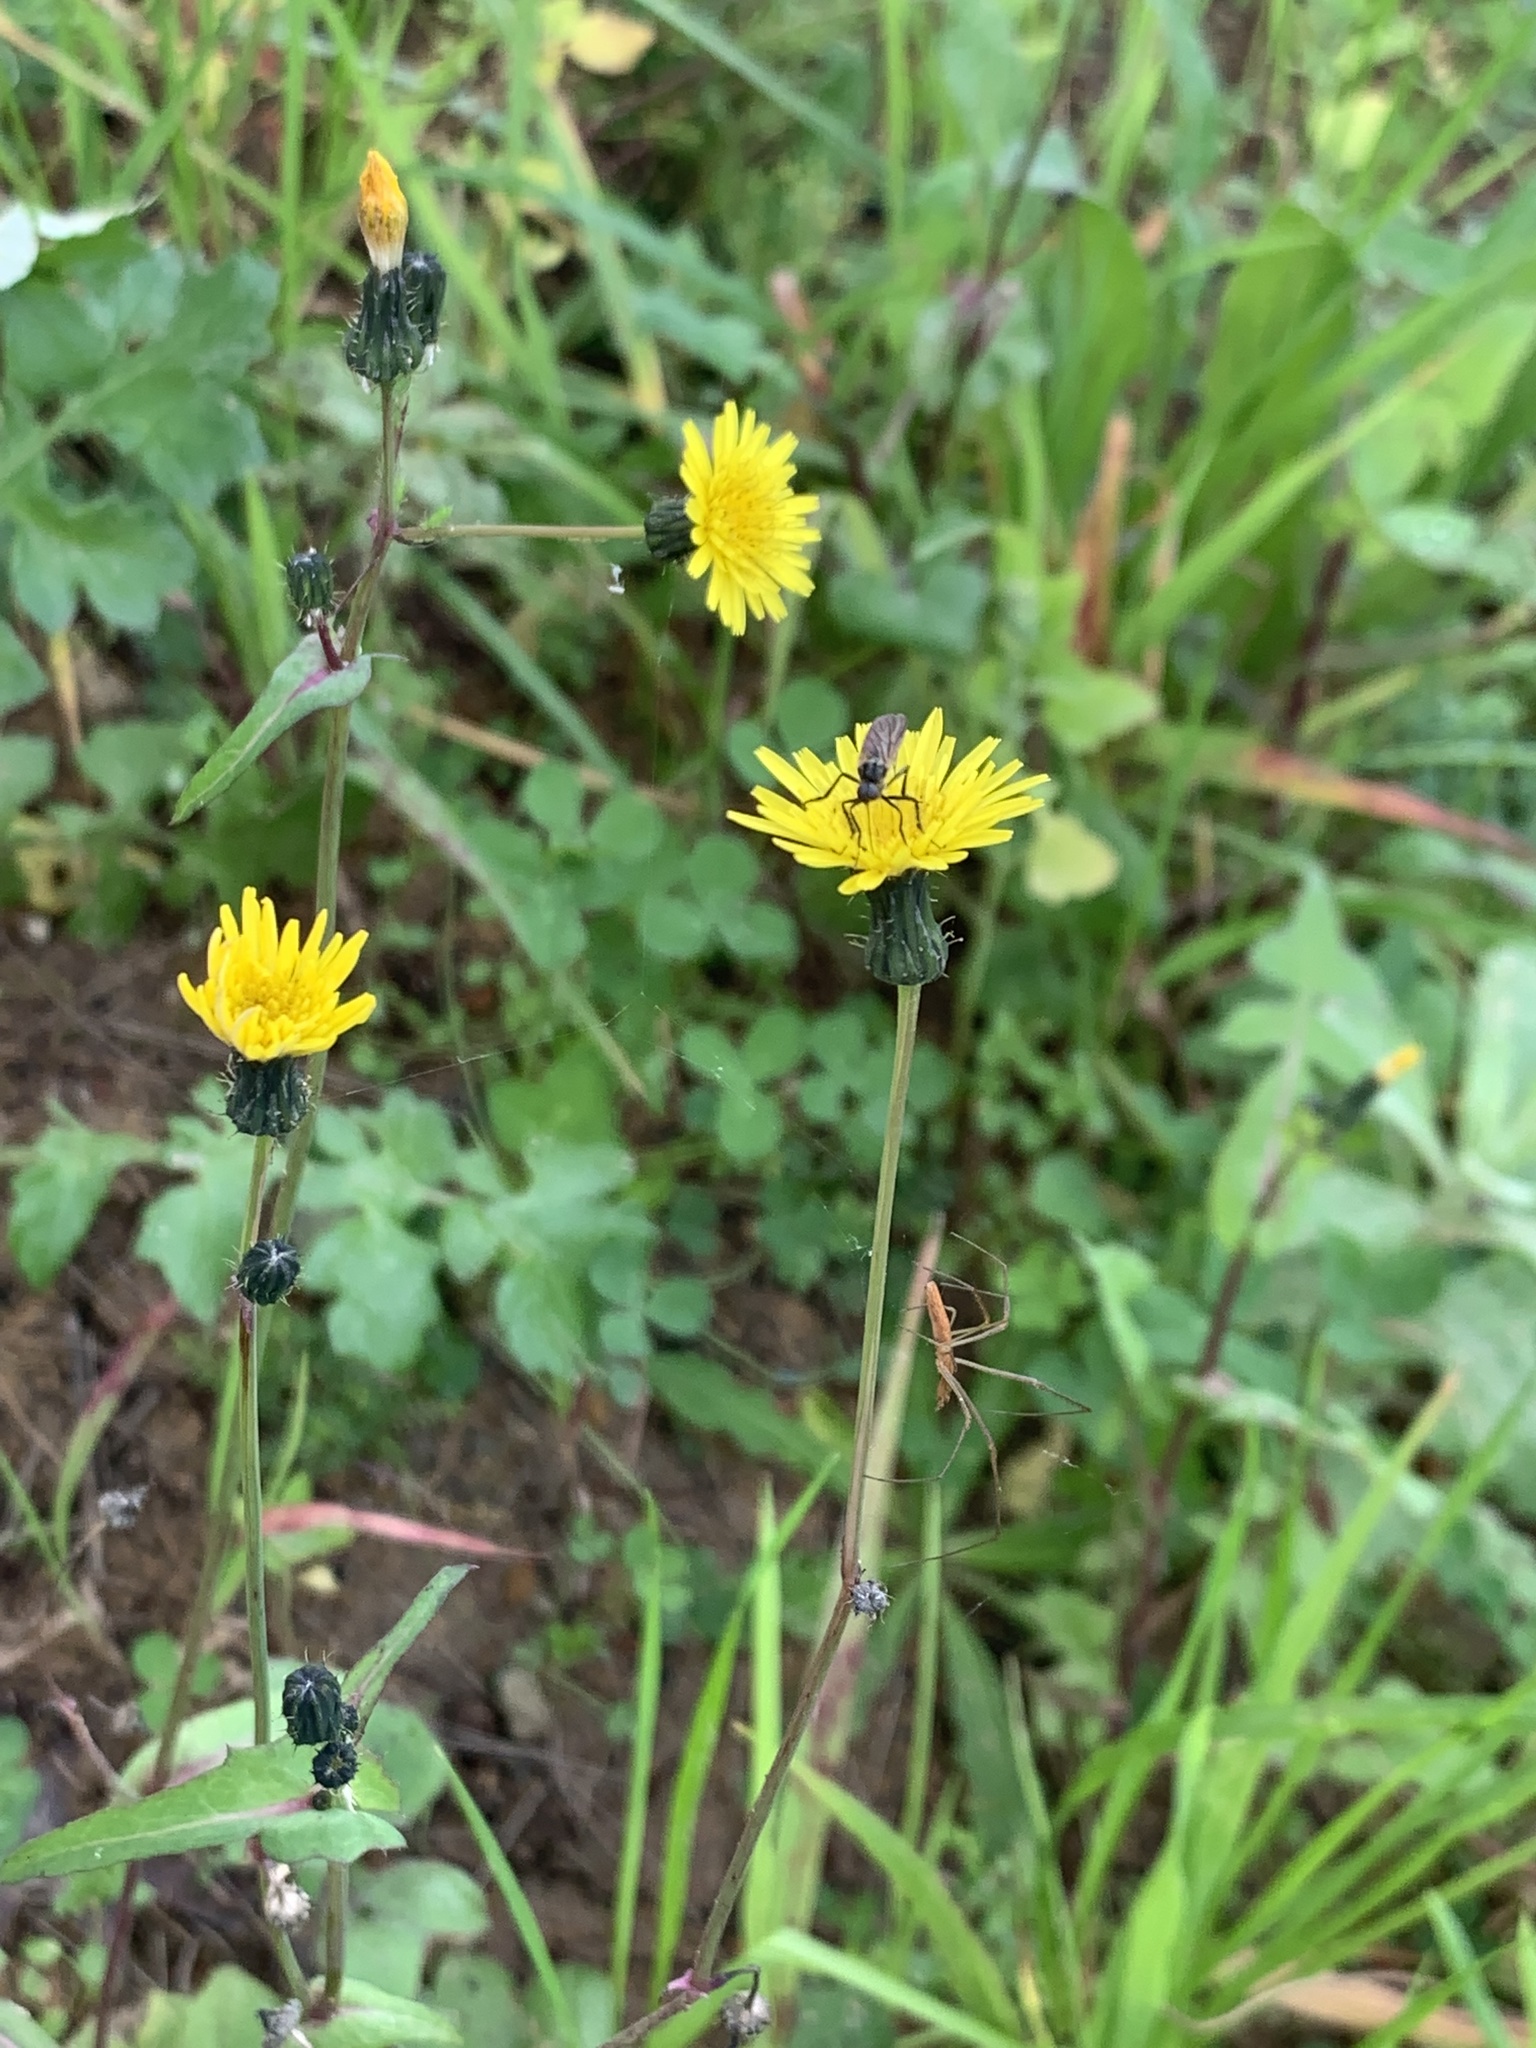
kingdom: Plantae
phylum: Tracheophyta
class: Magnoliopsida
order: Asterales
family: Asteraceae
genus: Sonchus
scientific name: Sonchus oleraceus
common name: Common sowthistle
